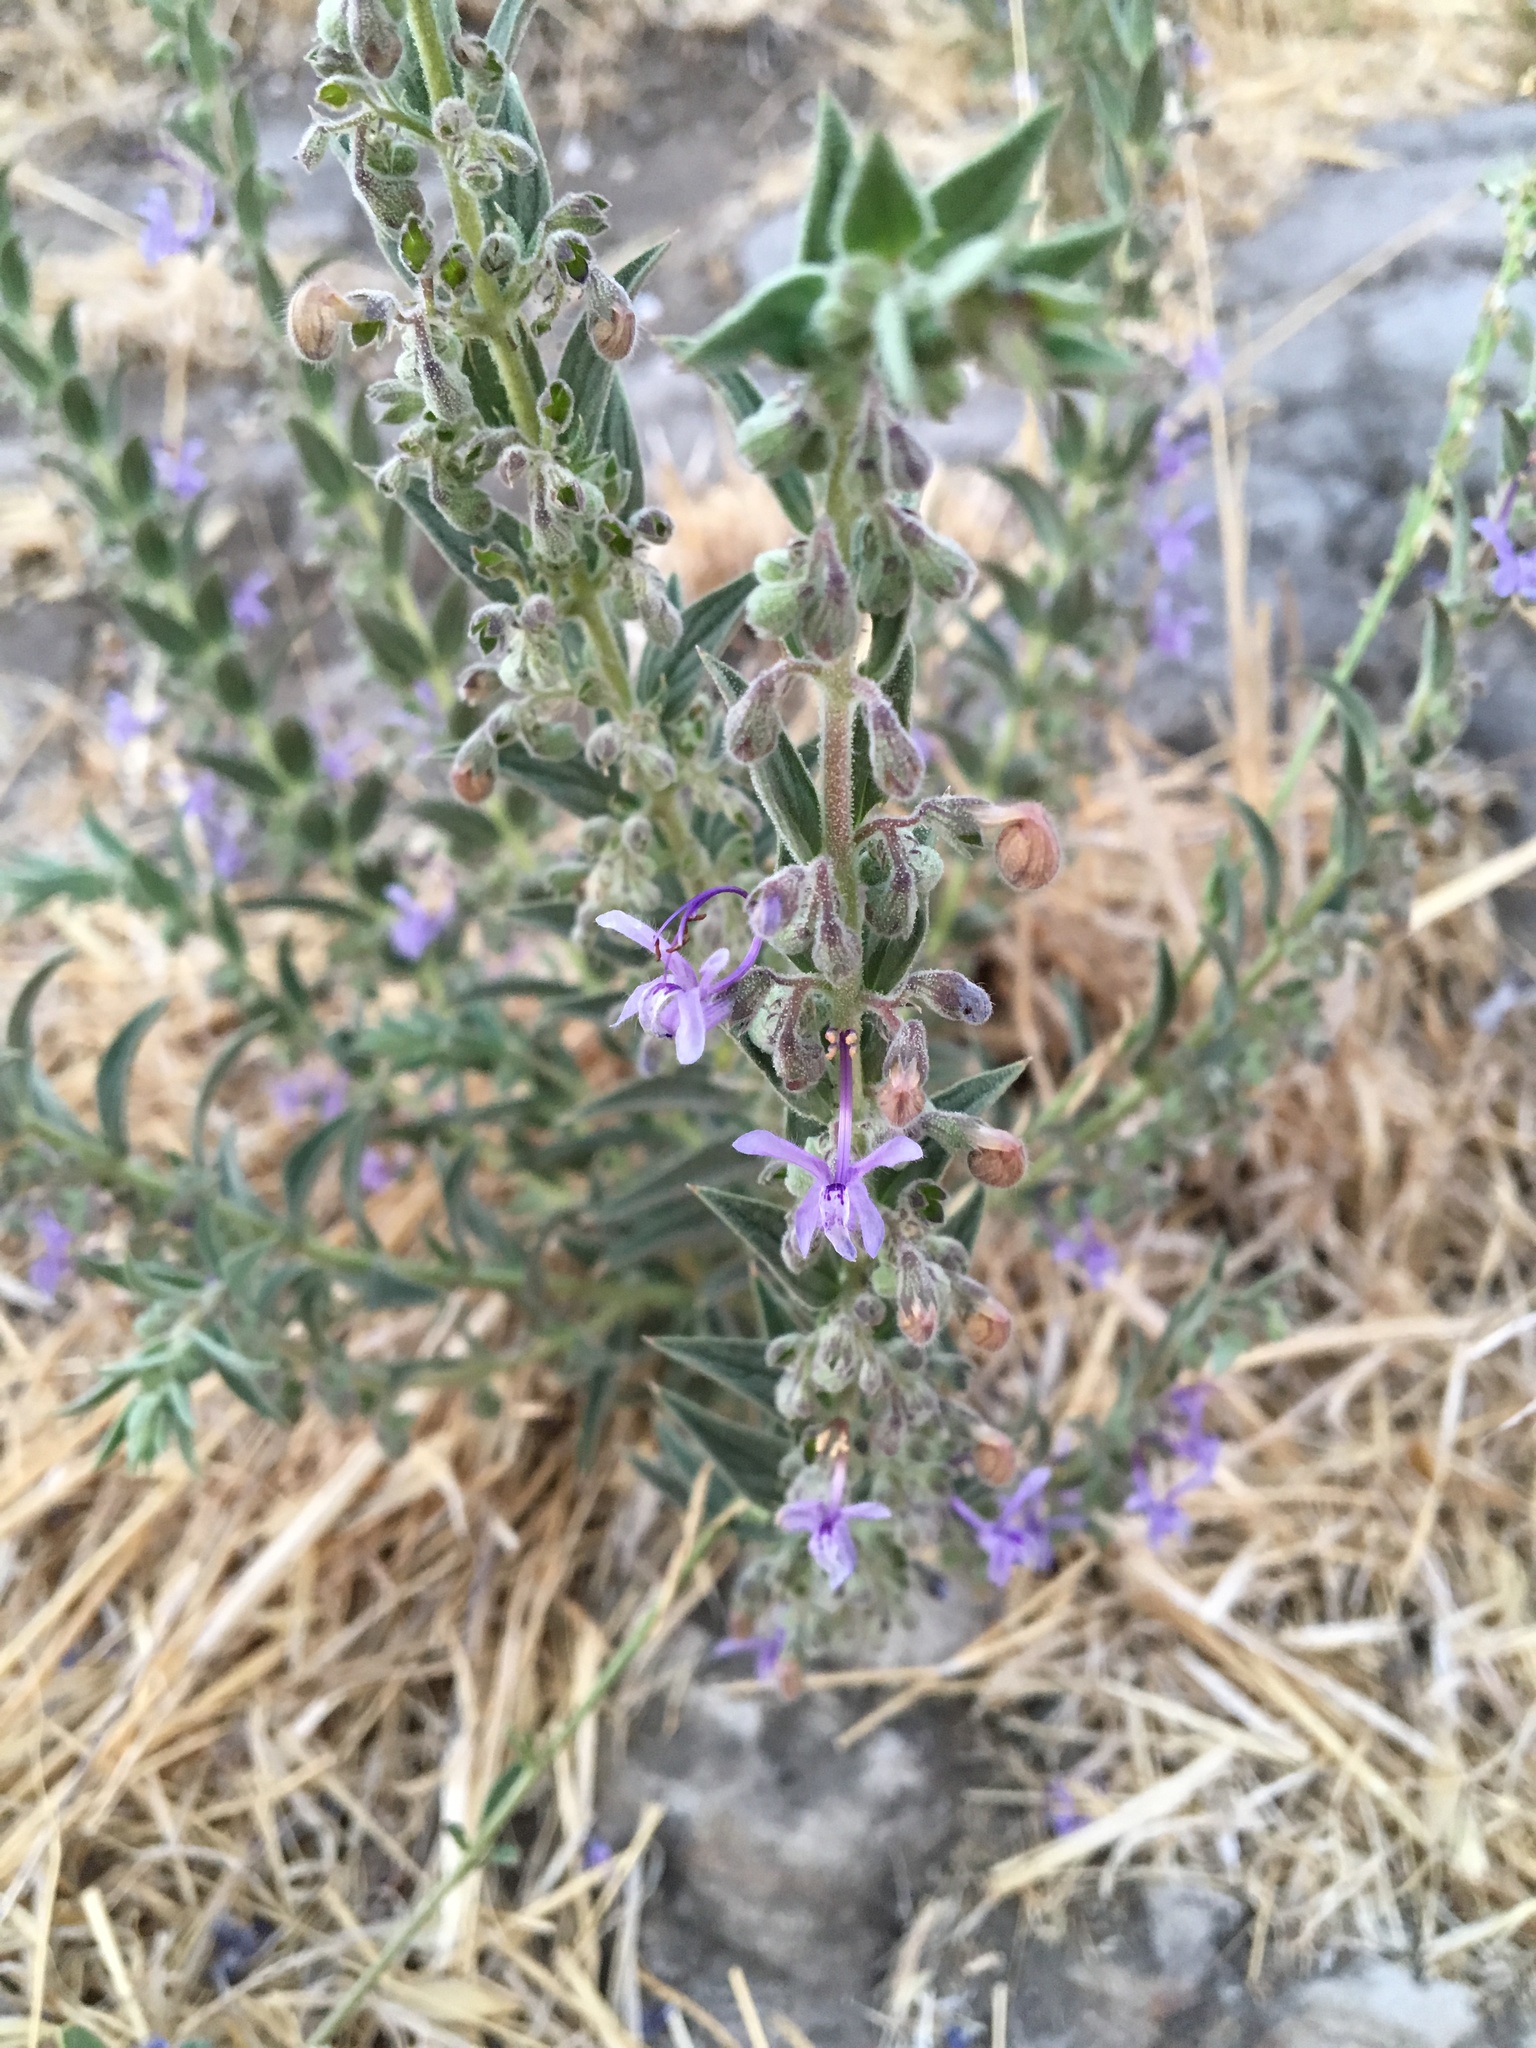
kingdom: Plantae
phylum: Tracheophyta
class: Magnoliopsida
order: Lamiales
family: Lamiaceae
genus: Trichostema
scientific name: Trichostema lanceolatum
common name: Vinegar-weed
